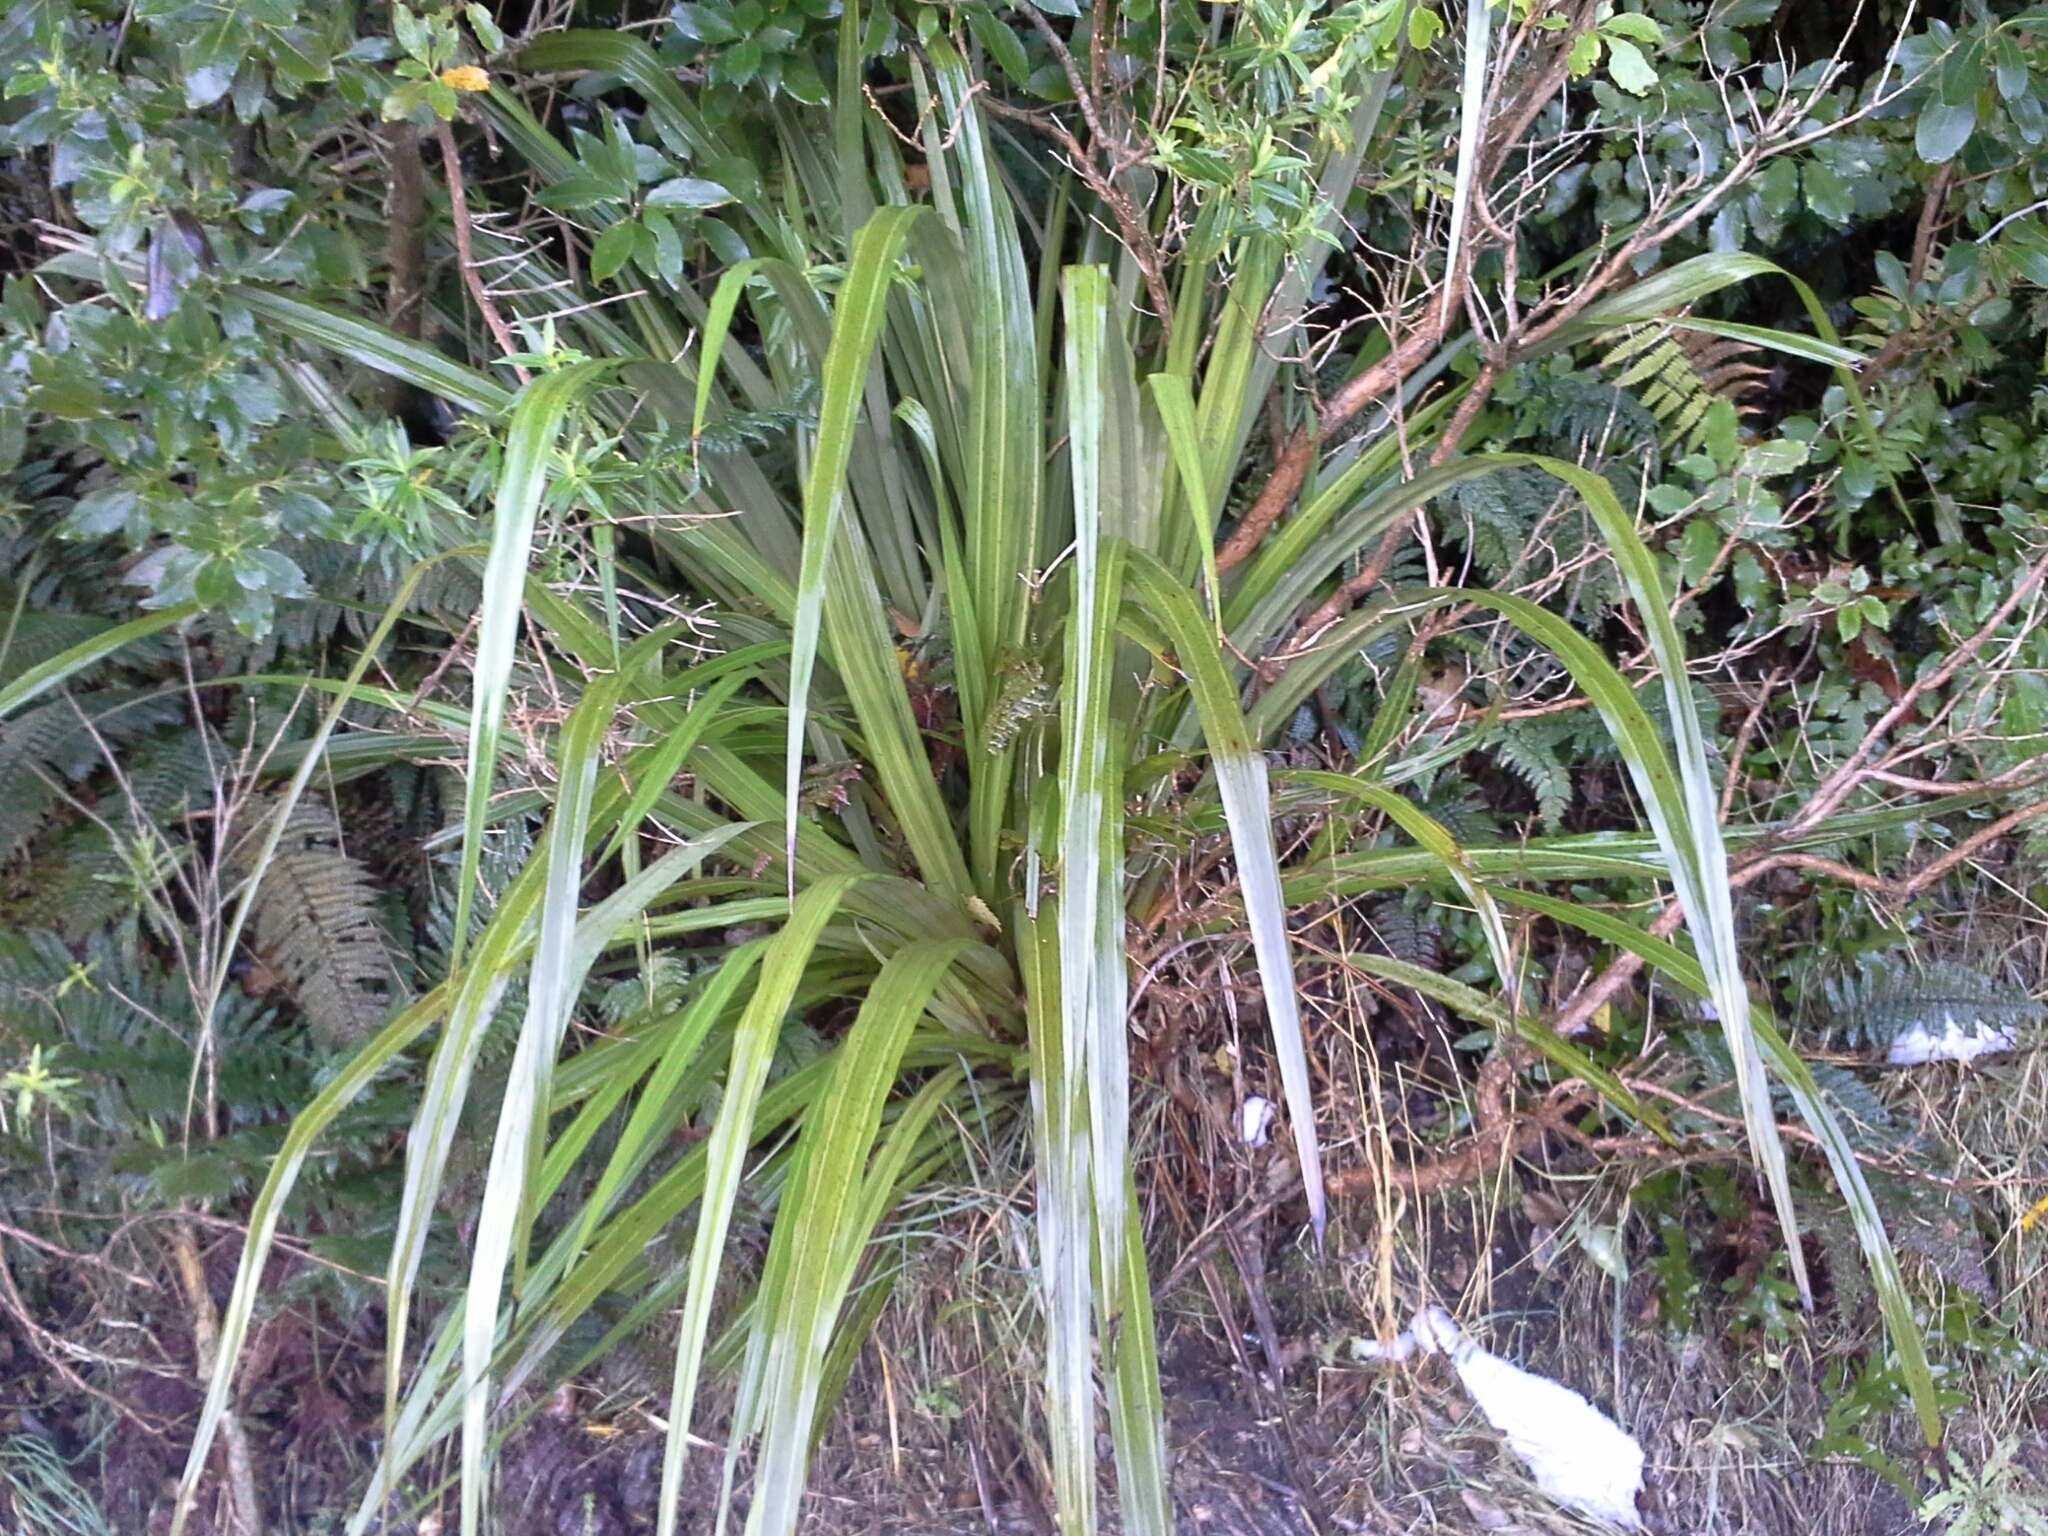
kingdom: Plantae
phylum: Tracheophyta
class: Liliopsida
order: Asparagales
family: Asteliaceae
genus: Astelia
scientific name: Astelia fragrans
